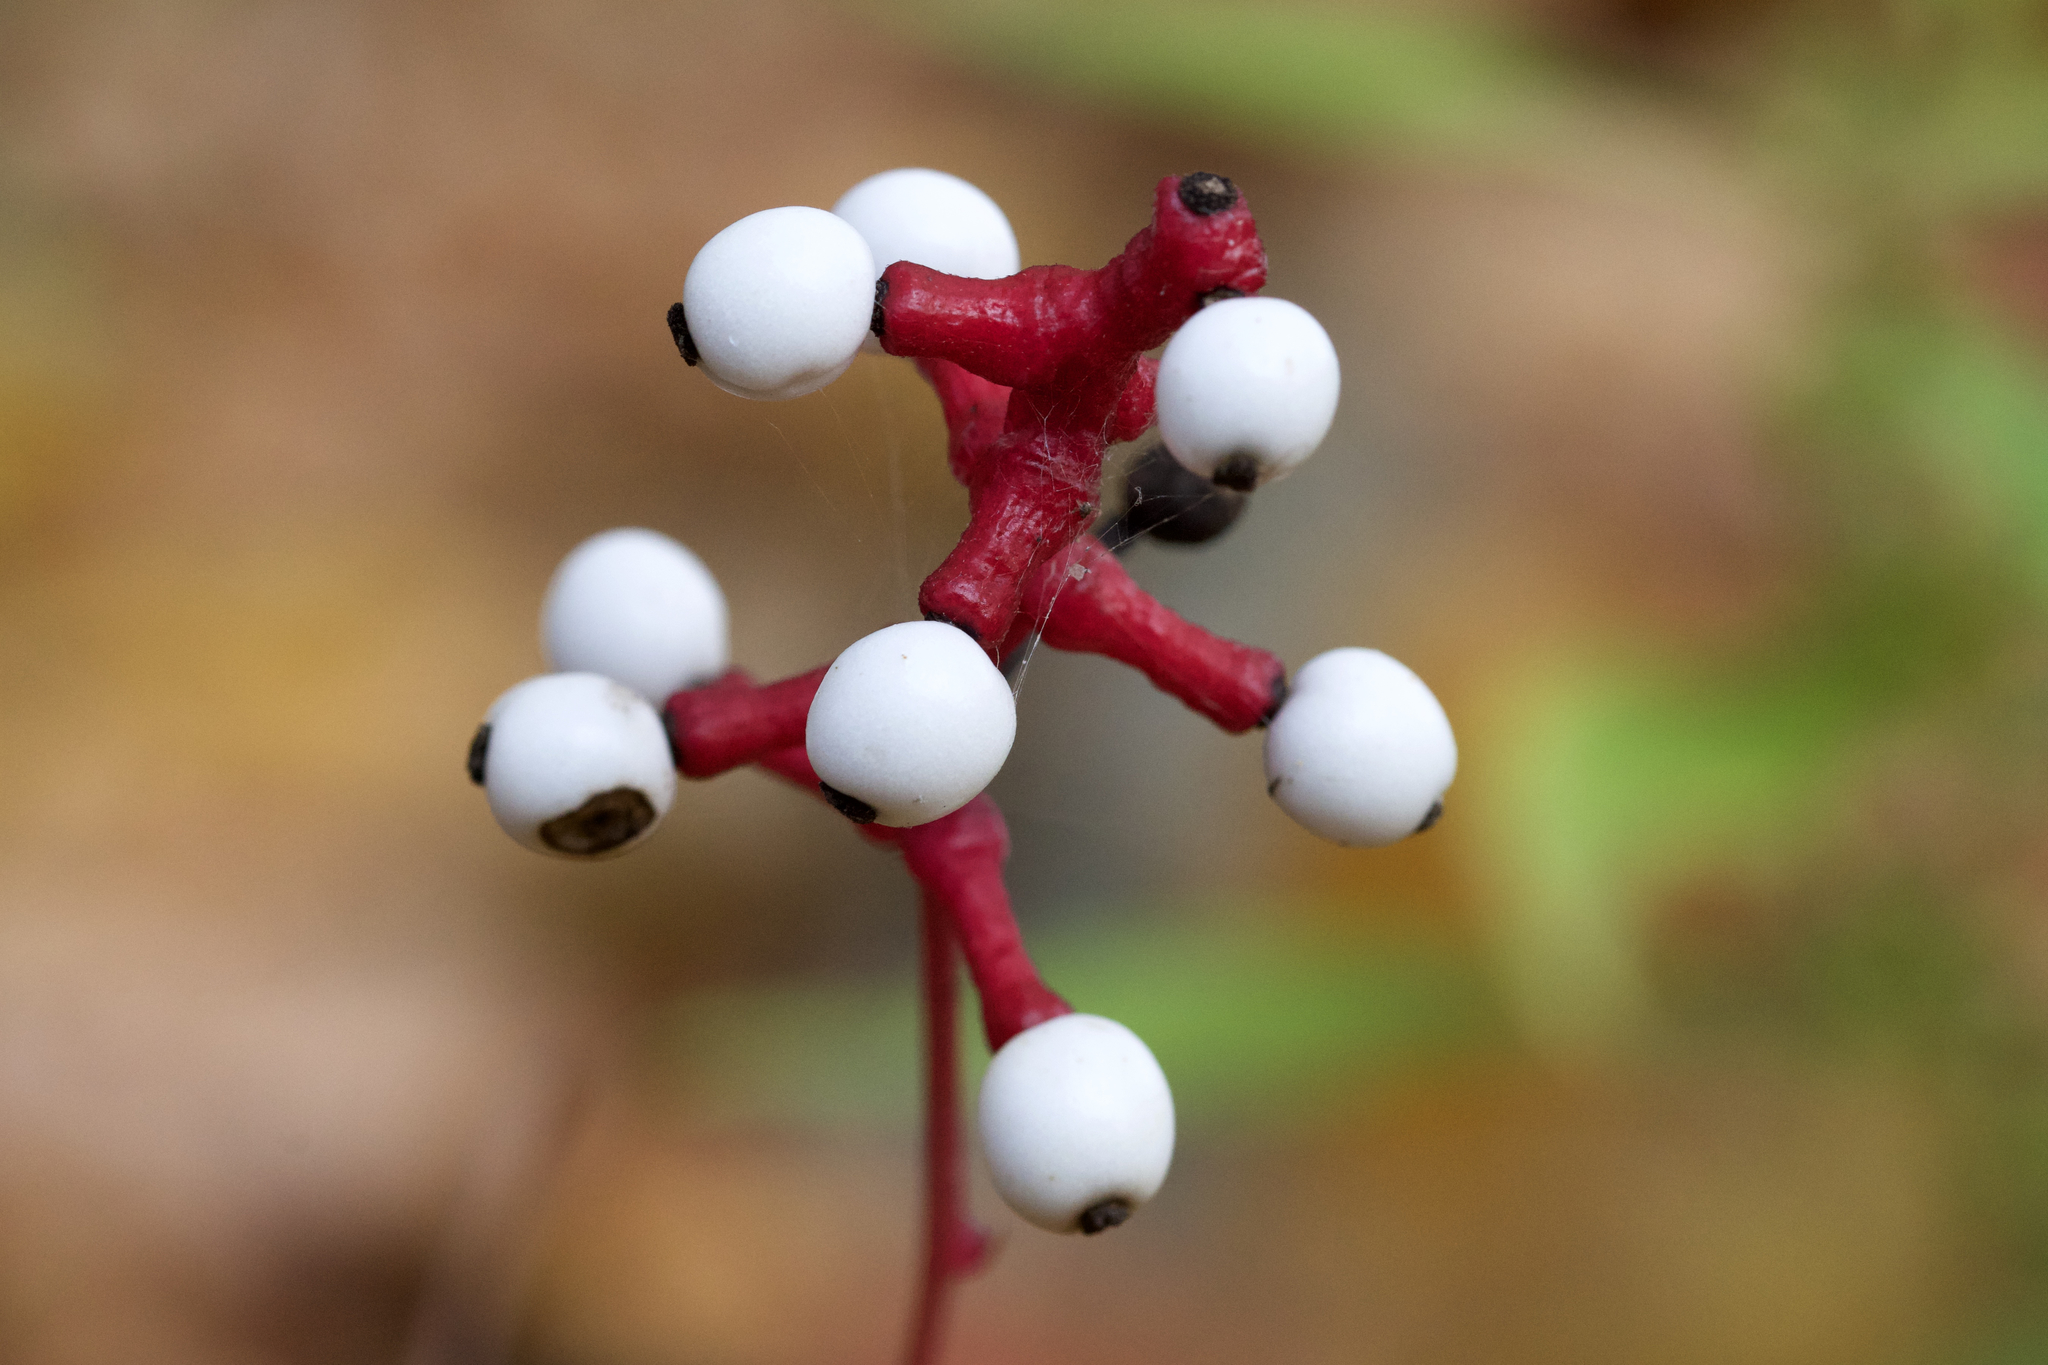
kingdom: Plantae
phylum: Tracheophyta
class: Magnoliopsida
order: Ranunculales
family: Ranunculaceae
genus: Actaea
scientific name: Actaea pachypoda
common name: Doll's-eyes
